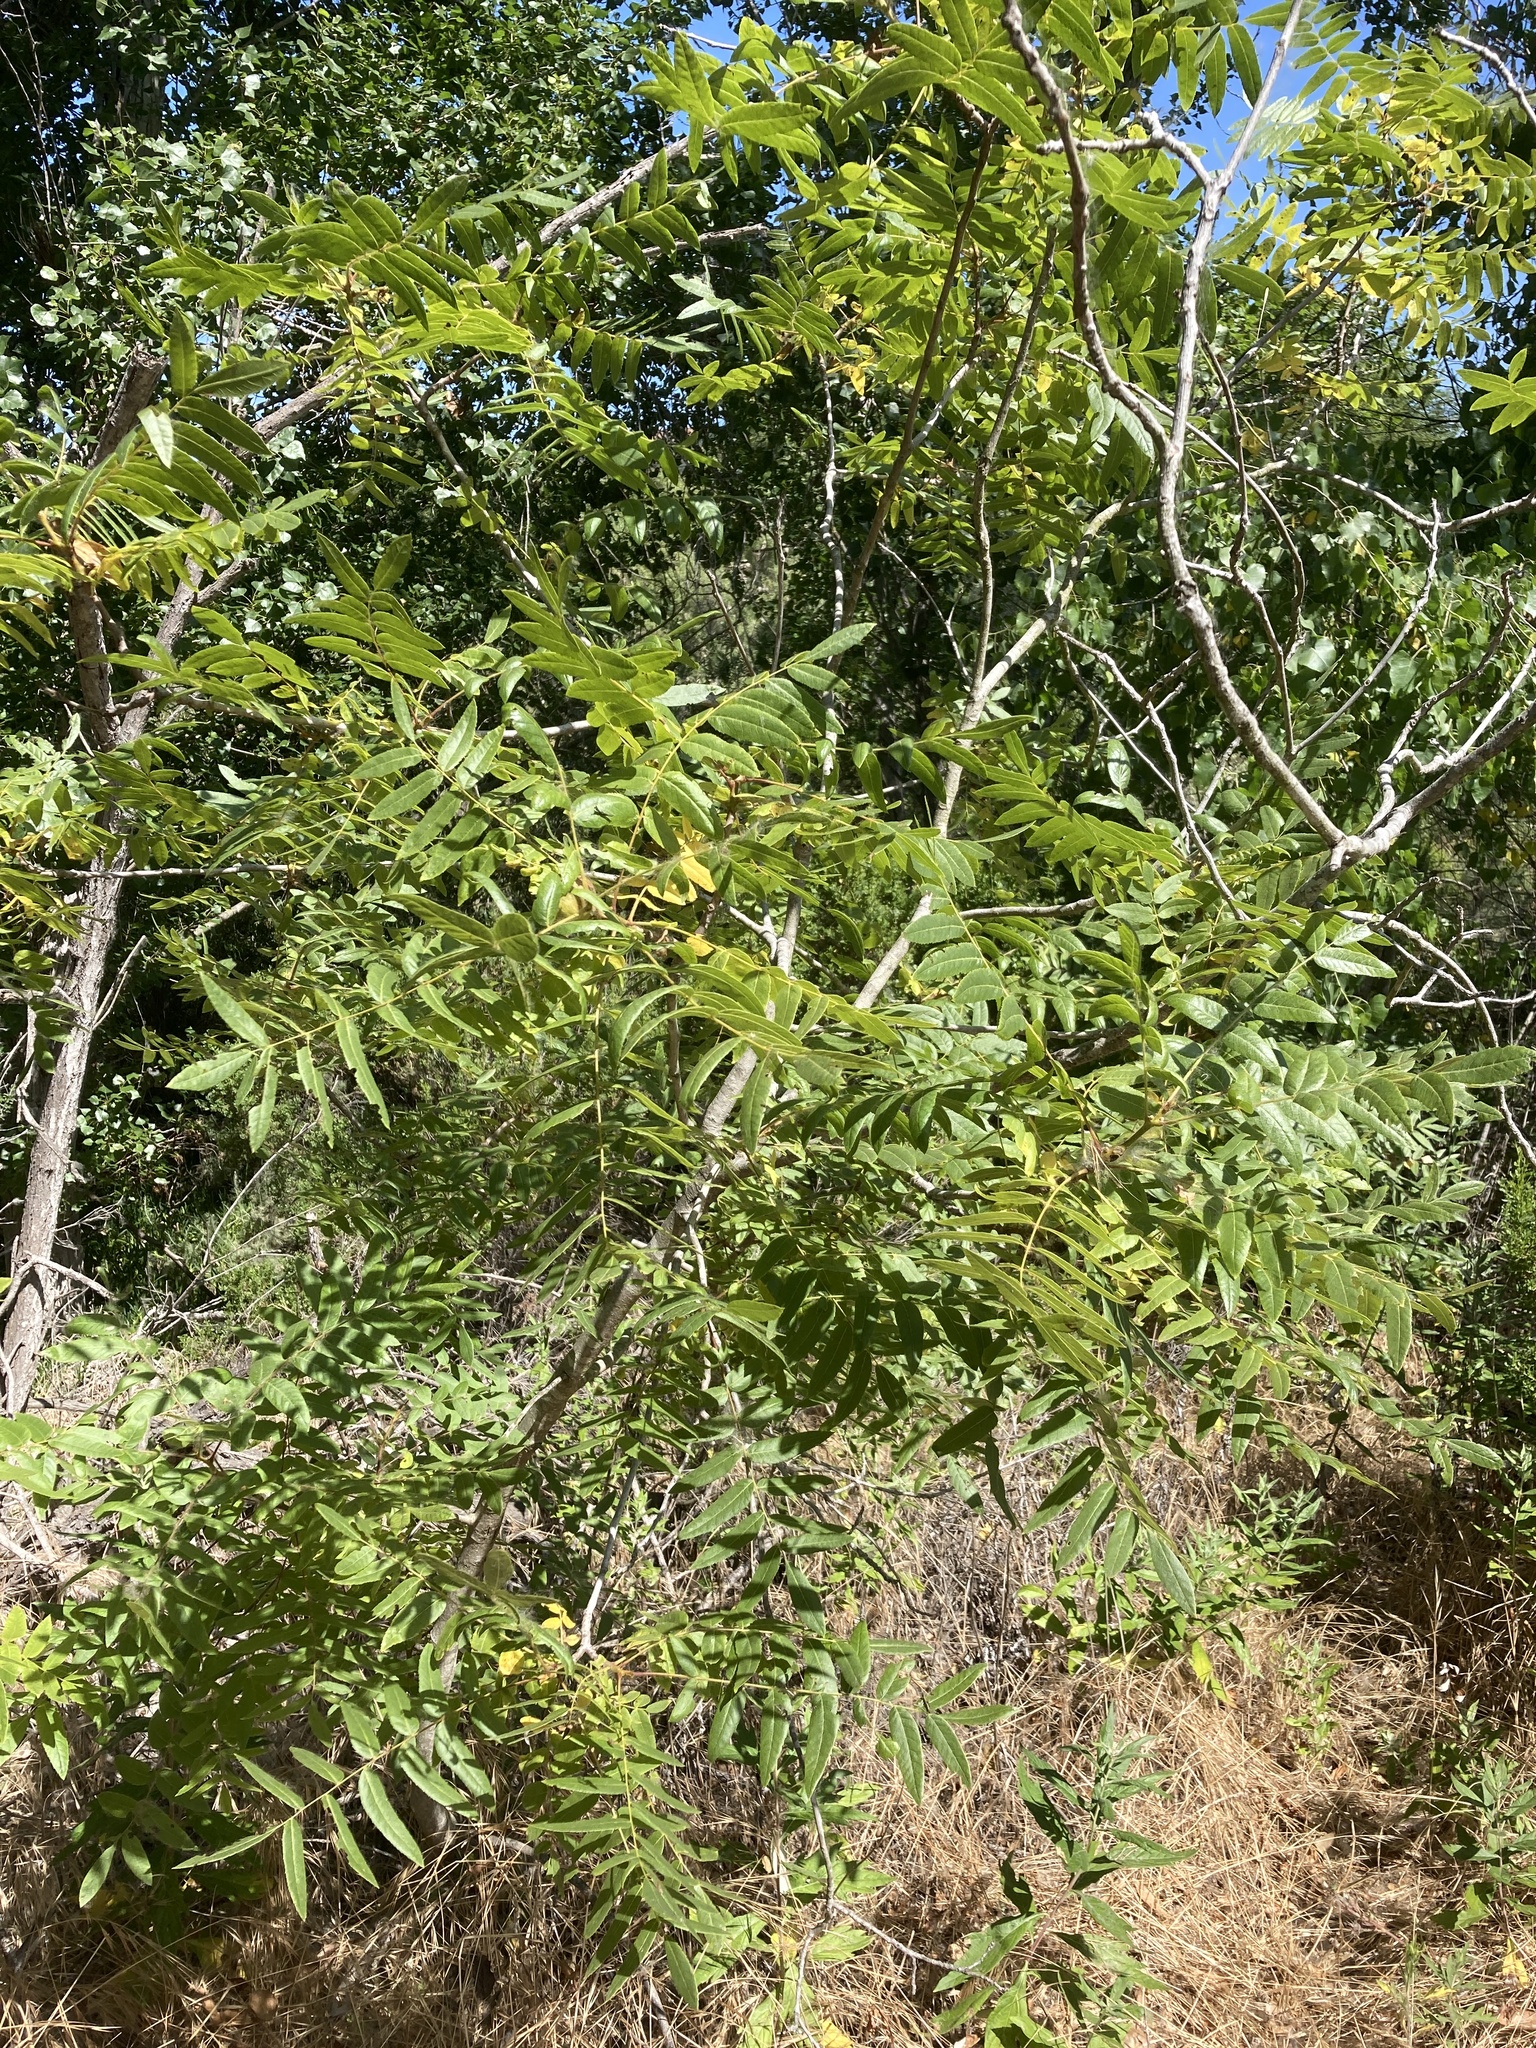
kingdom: Plantae
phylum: Tracheophyta
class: Magnoliopsida
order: Fagales
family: Juglandaceae
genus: Juglans
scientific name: Juglans californica
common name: Southern california black walnut
